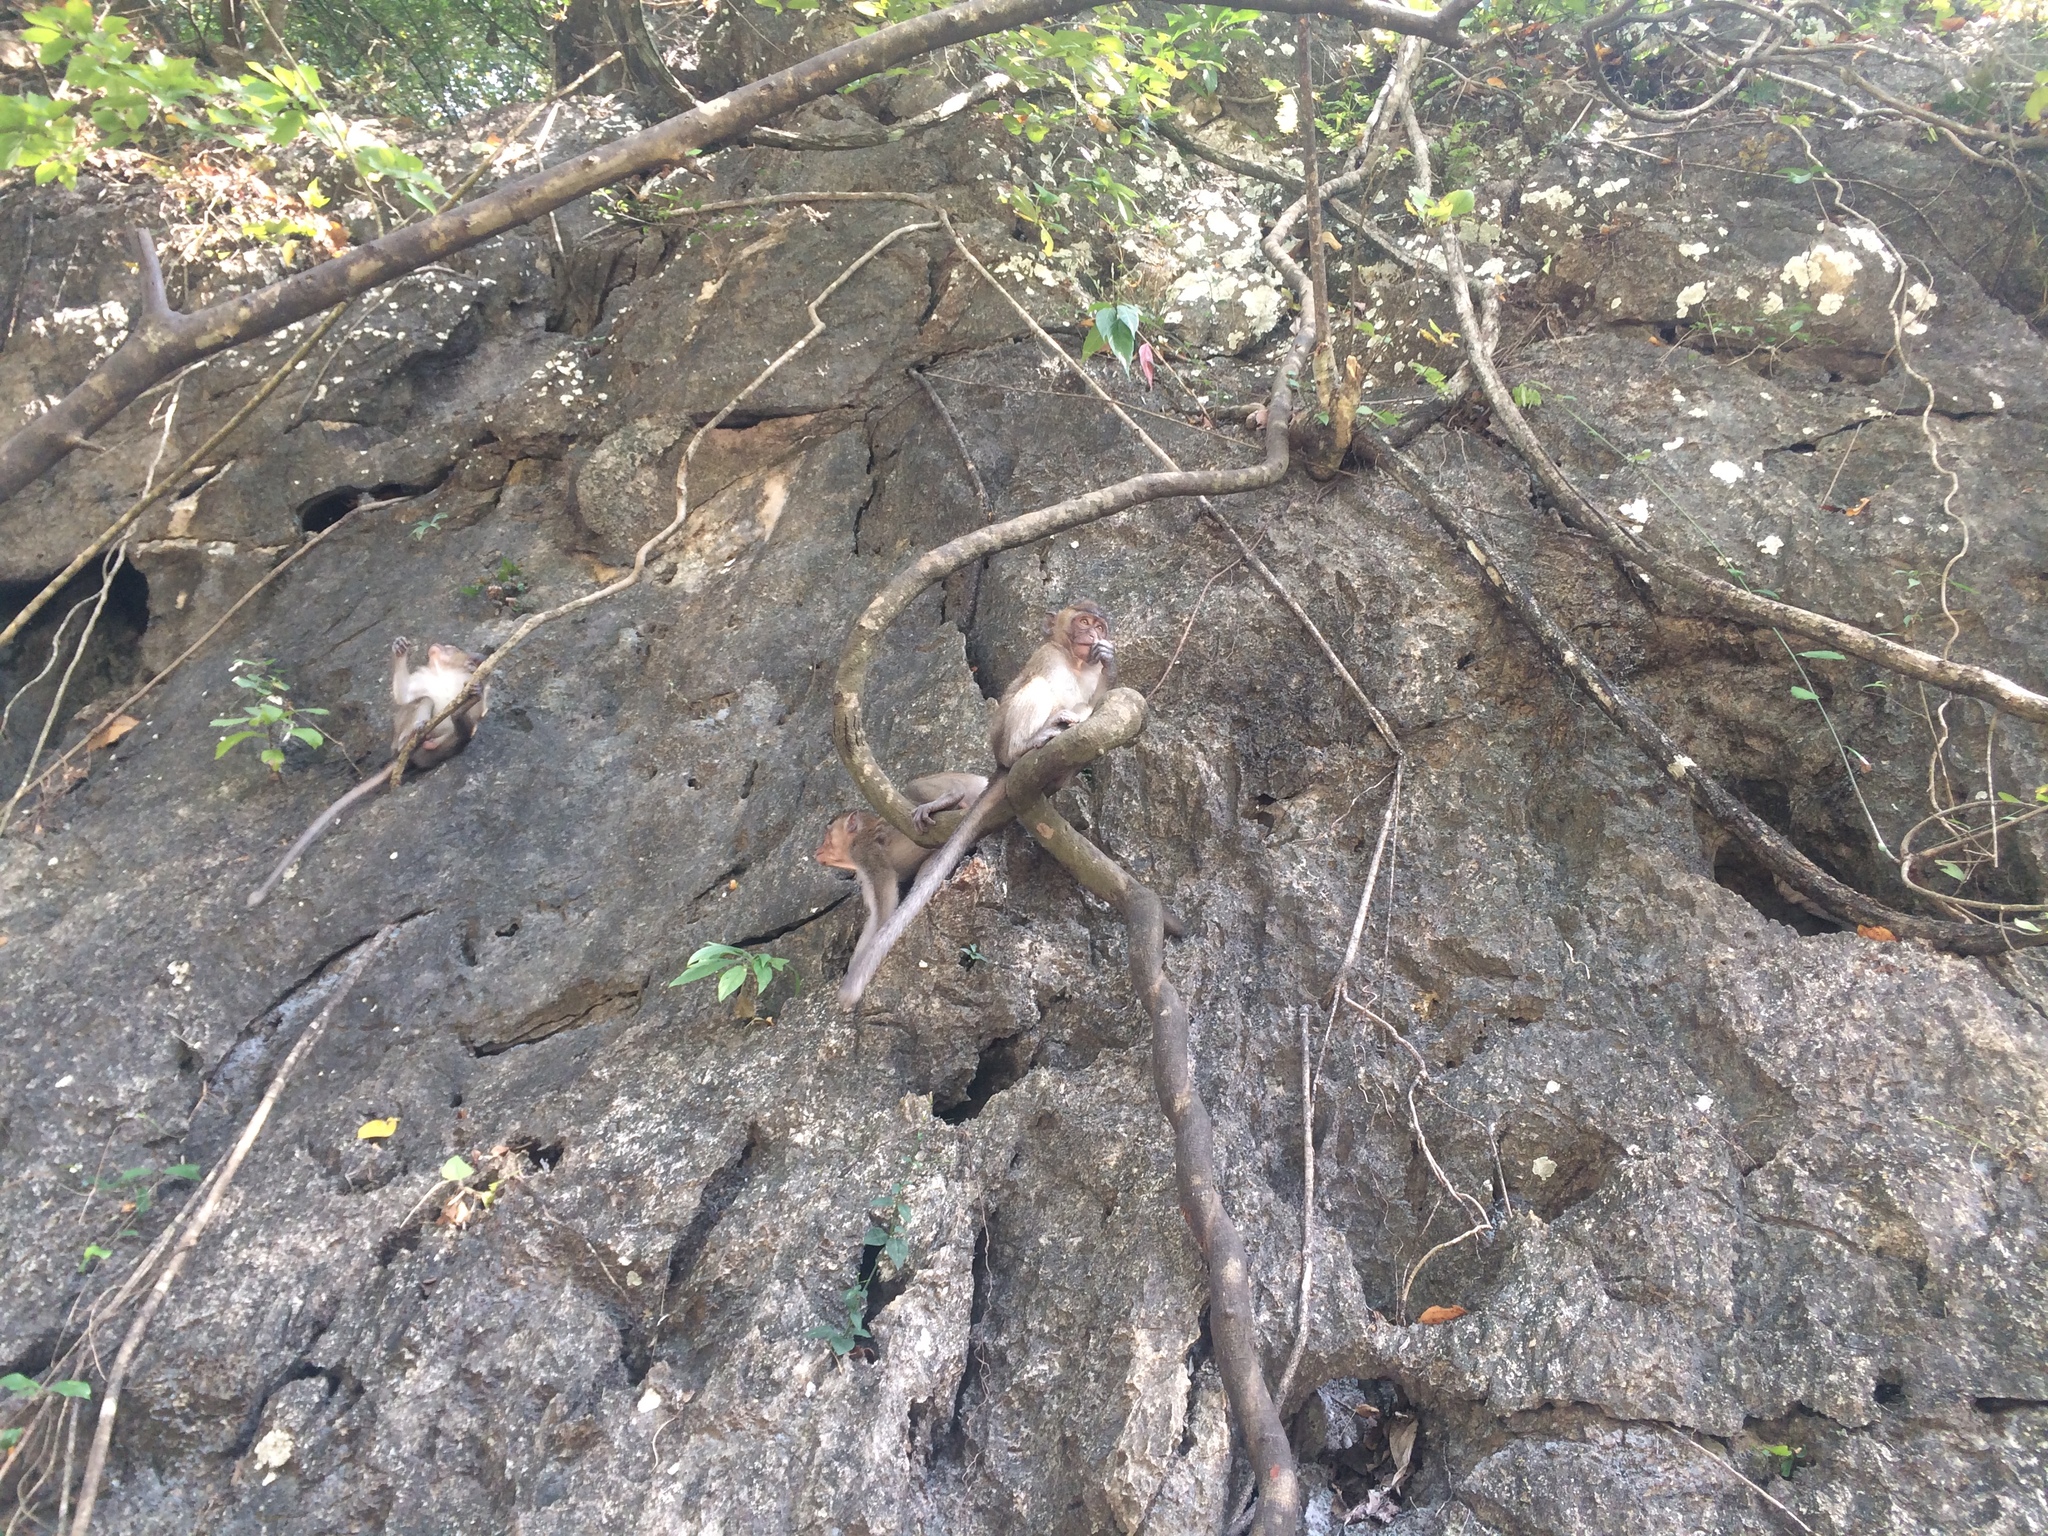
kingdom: Animalia
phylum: Chordata
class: Mammalia
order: Primates
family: Cercopithecidae
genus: Macaca
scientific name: Macaca fascicularis
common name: Crab-eating macaque
